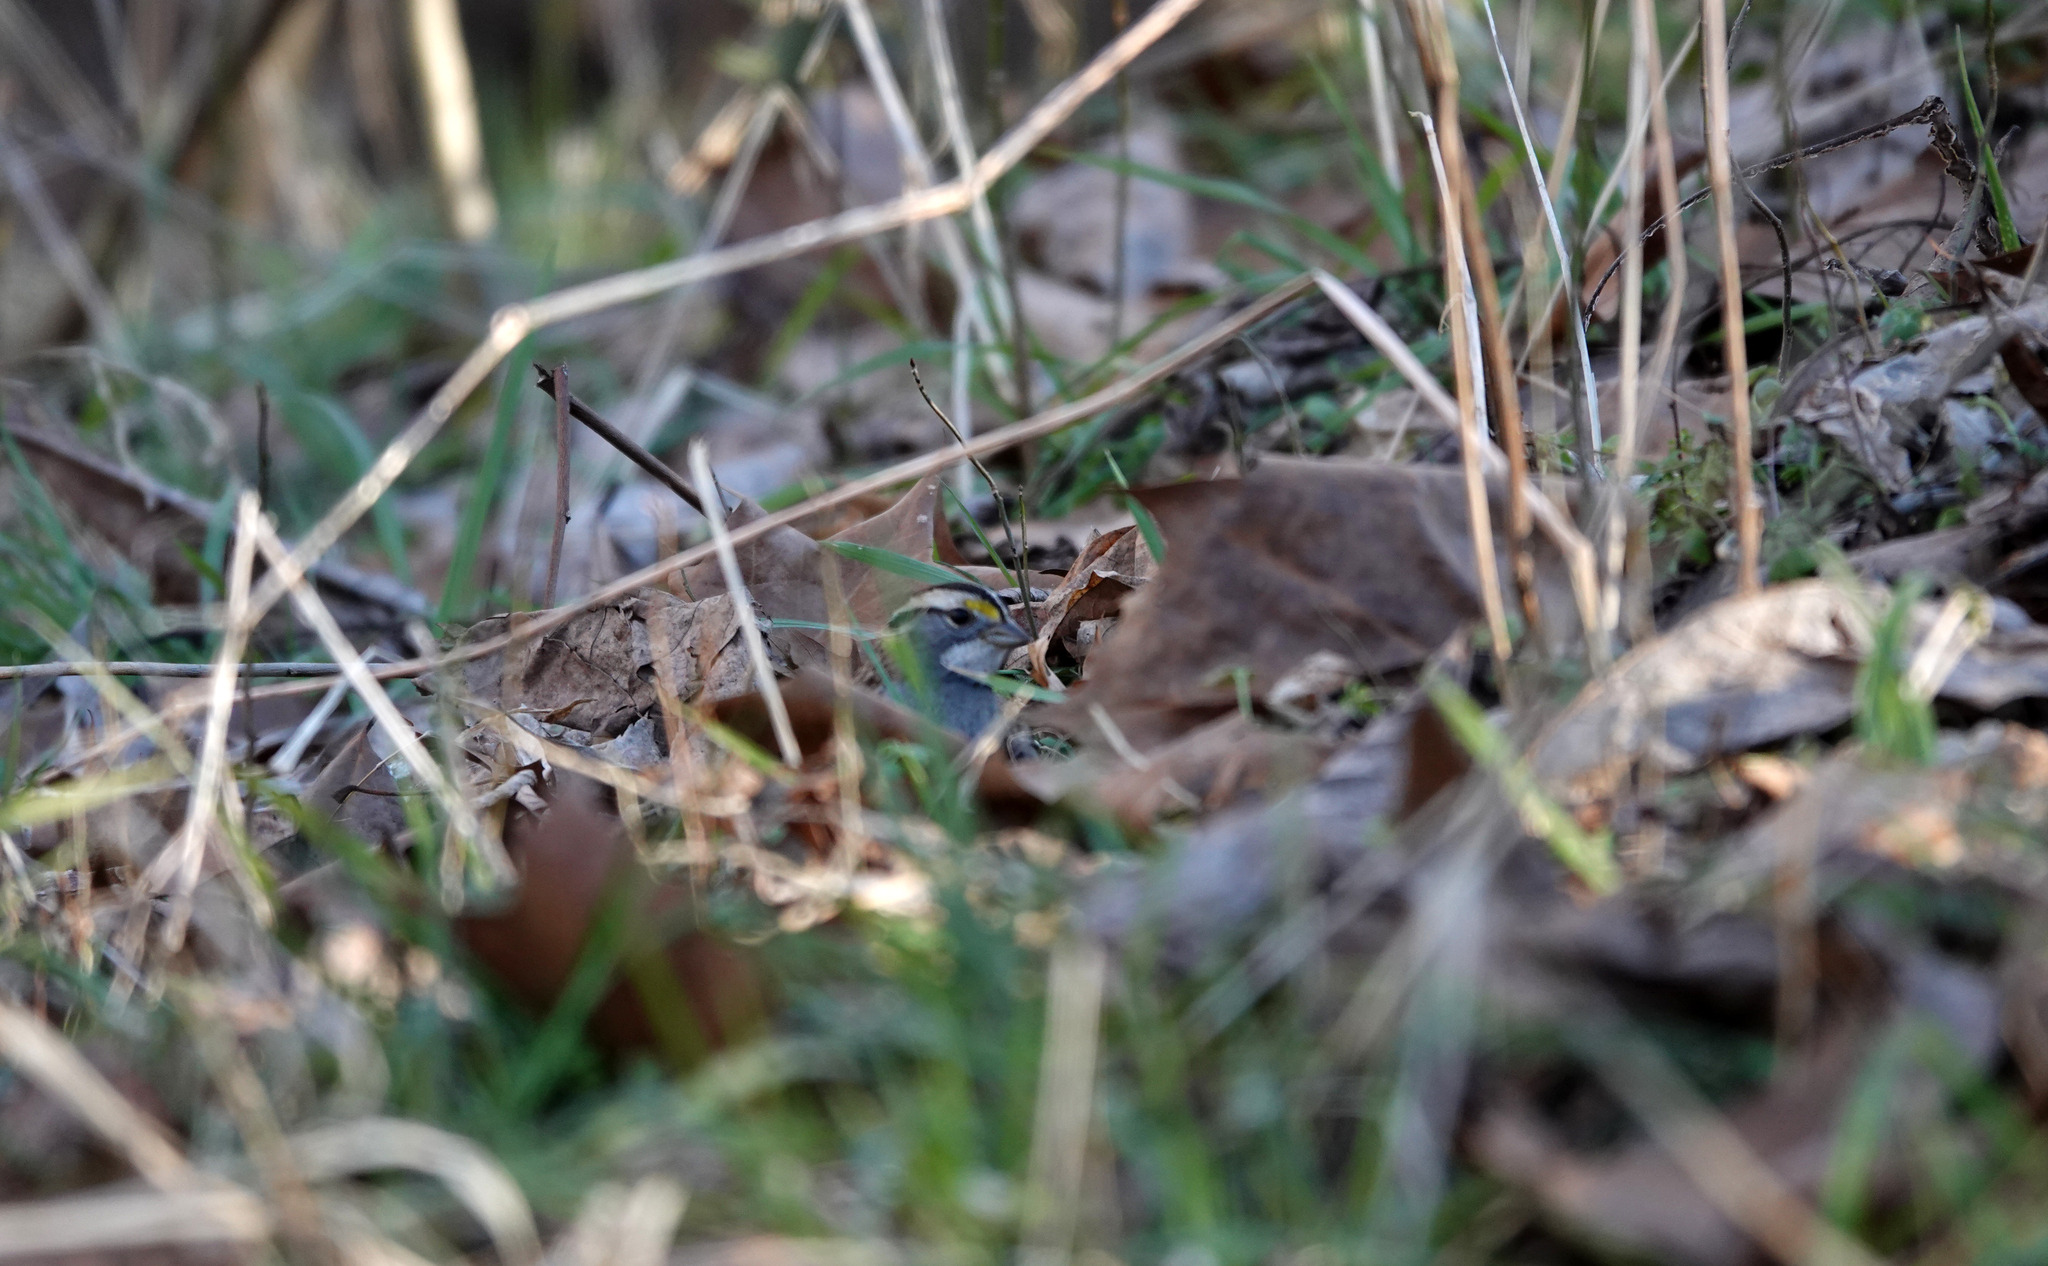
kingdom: Animalia
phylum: Chordata
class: Aves
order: Passeriformes
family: Passerellidae
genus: Zonotrichia
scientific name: Zonotrichia albicollis
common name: White-throated sparrow
